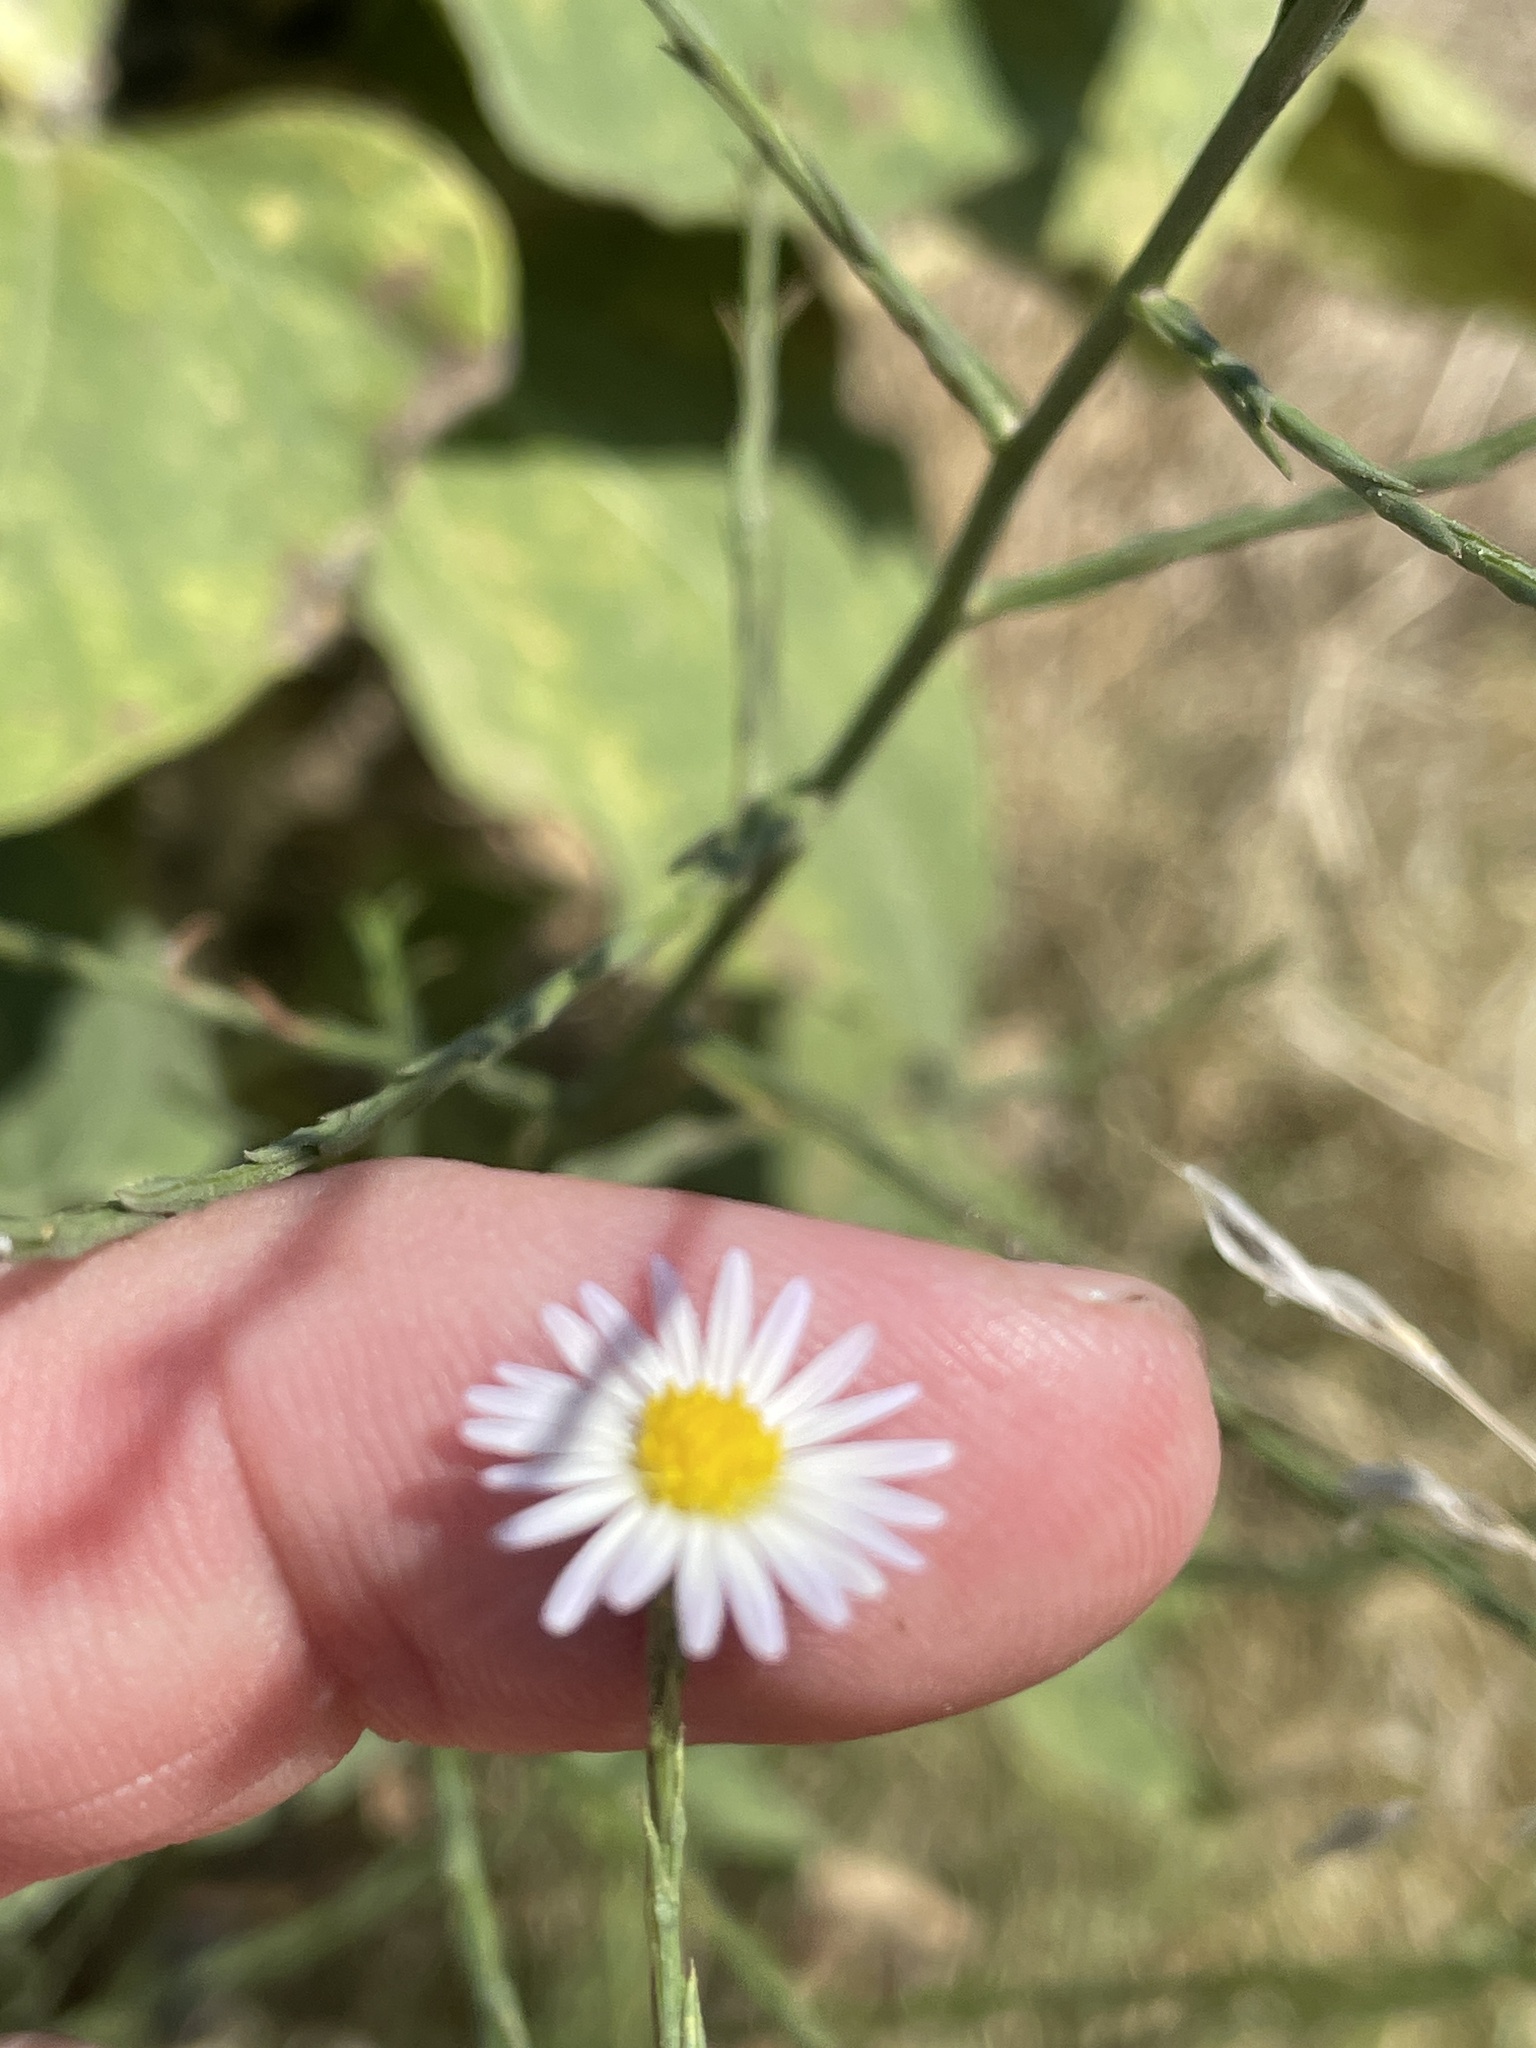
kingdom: Plantae
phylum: Tracheophyta
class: Magnoliopsida
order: Asterales
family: Asteraceae
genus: Symphyotrichum
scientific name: Symphyotrichum divaricatum
